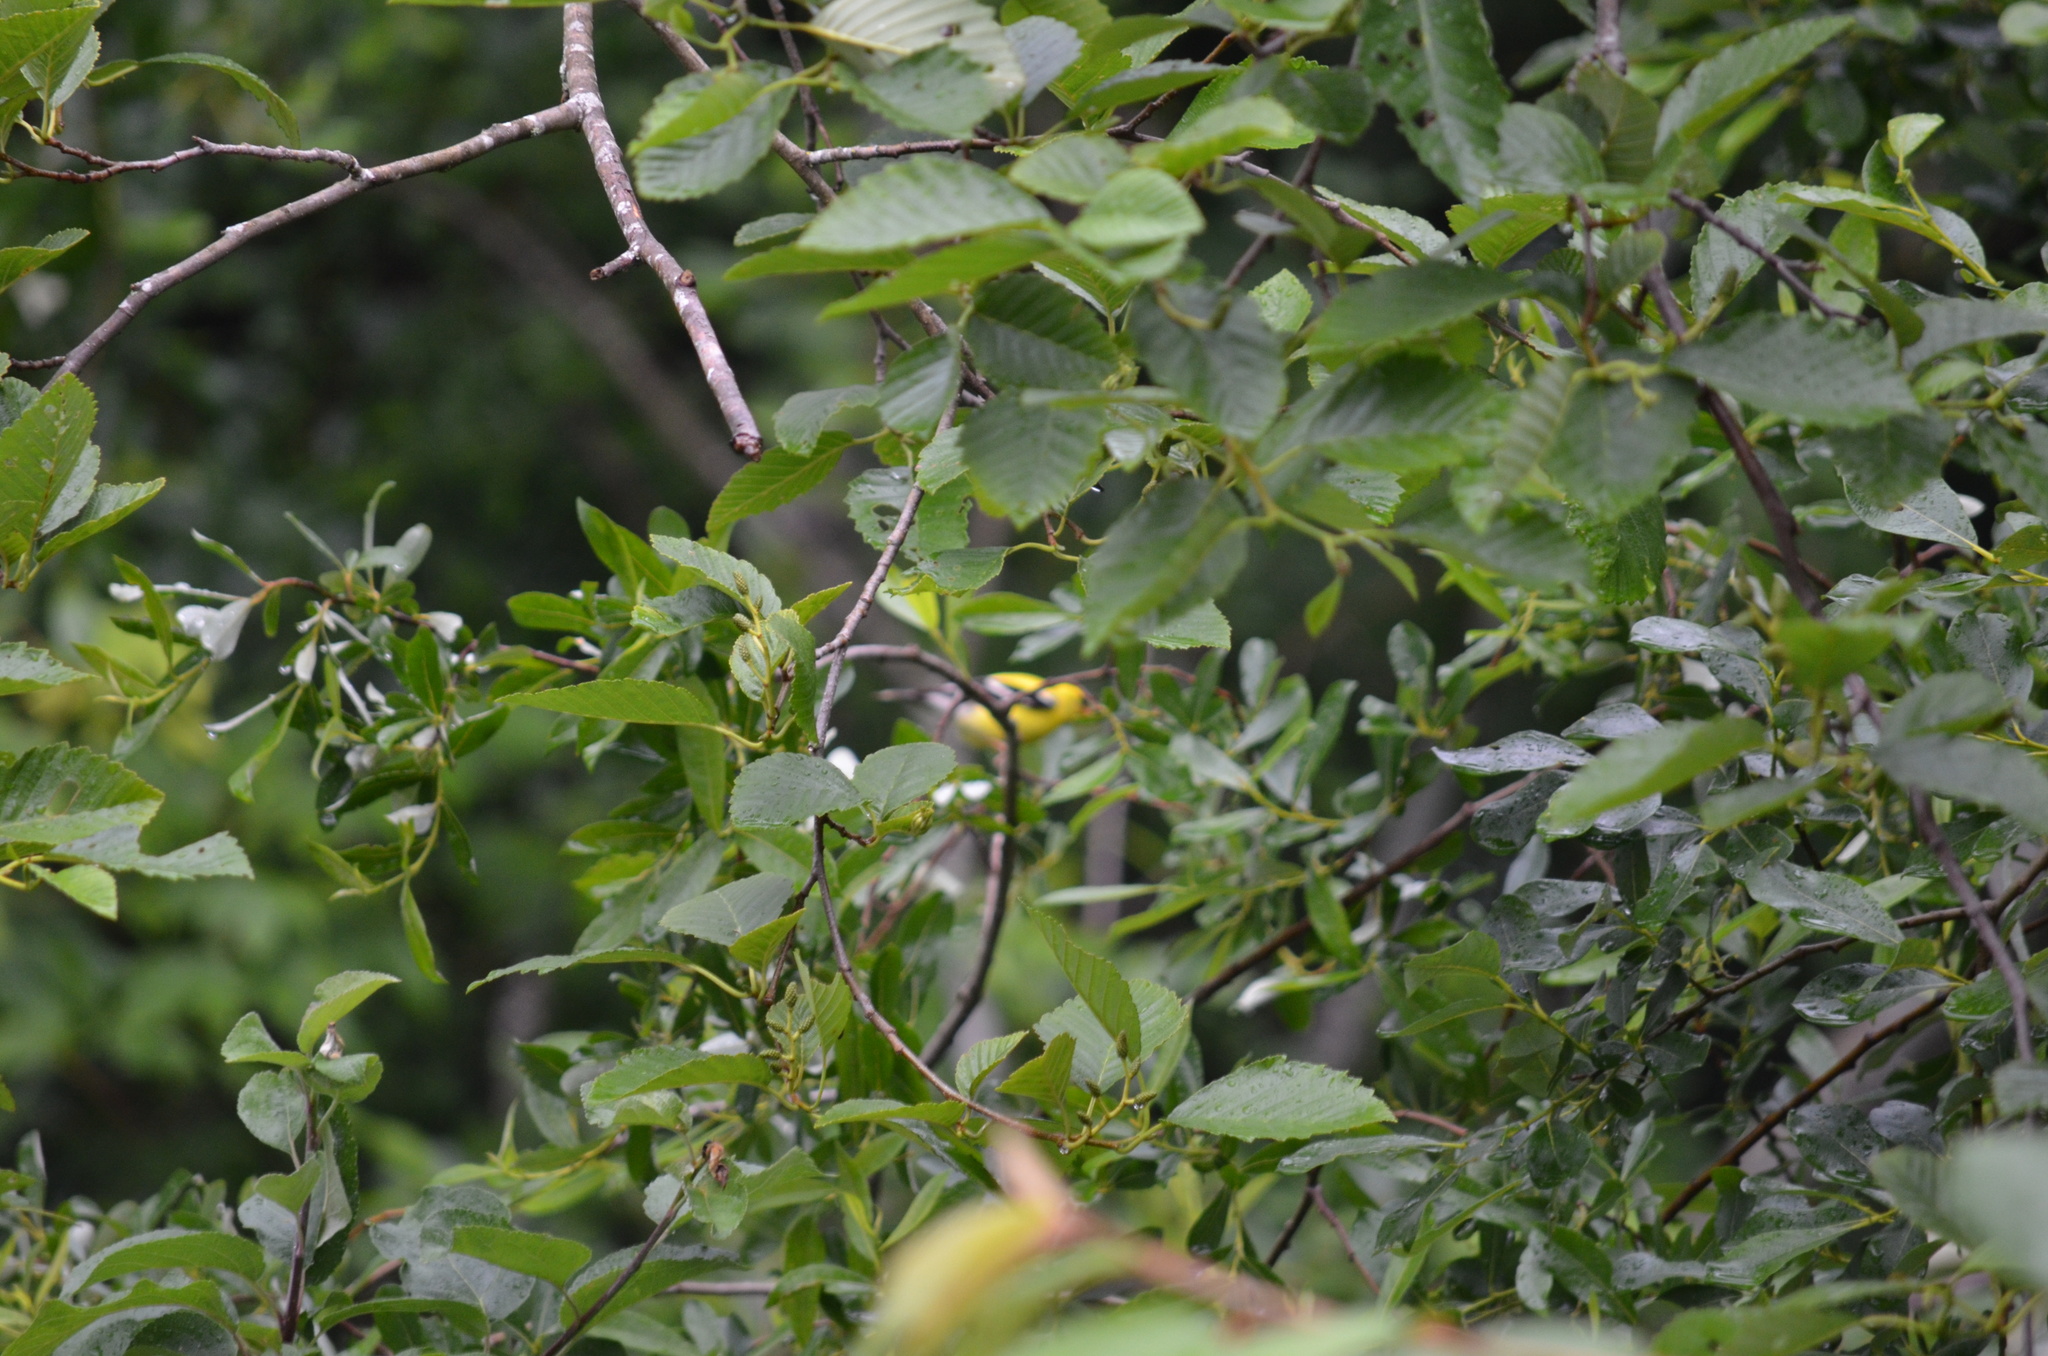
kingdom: Animalia
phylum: Chordata
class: Aves
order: Passeriformes
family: Fringillidae
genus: Spinus
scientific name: Spinus tristis
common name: American goldfinch
